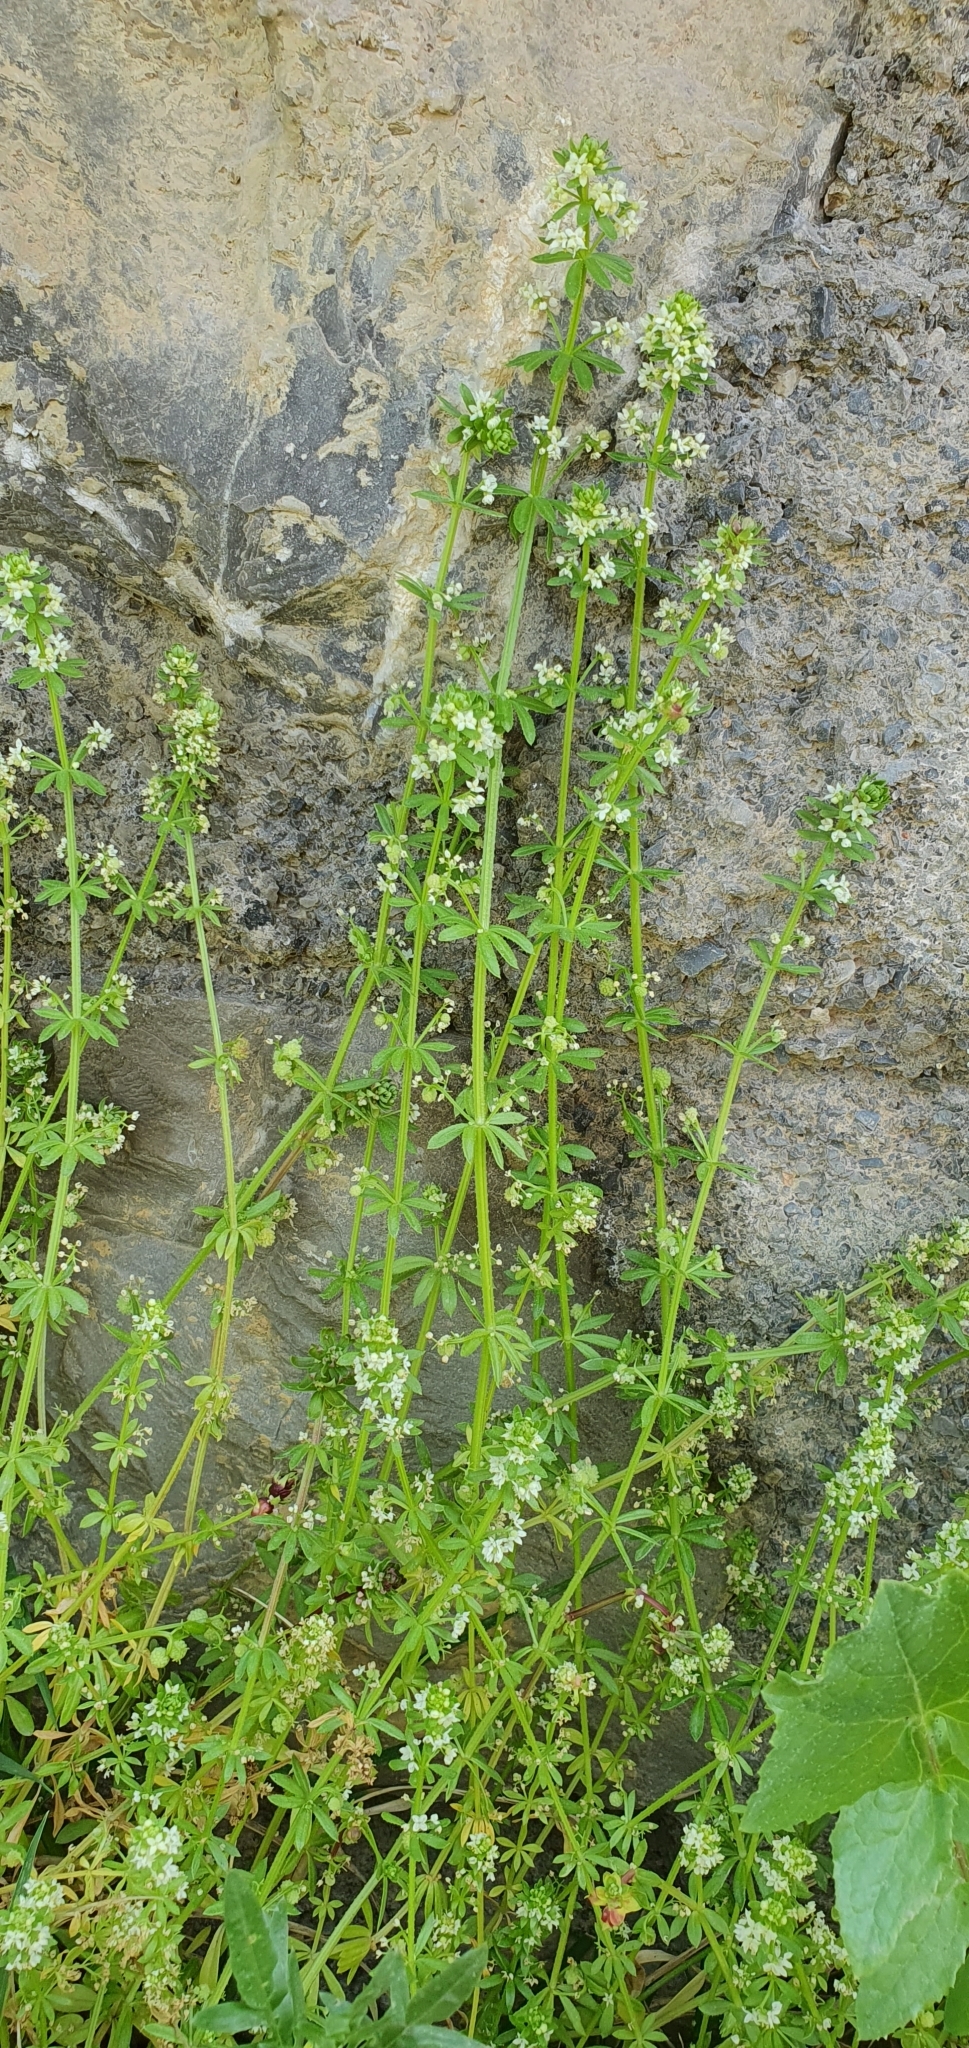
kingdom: Plantae
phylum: Tracheophyta
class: Magnoliopsida
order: Gentianales
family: Rubiaceae
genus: Galium
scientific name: Galium verrucosum
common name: Warty bedstraw
